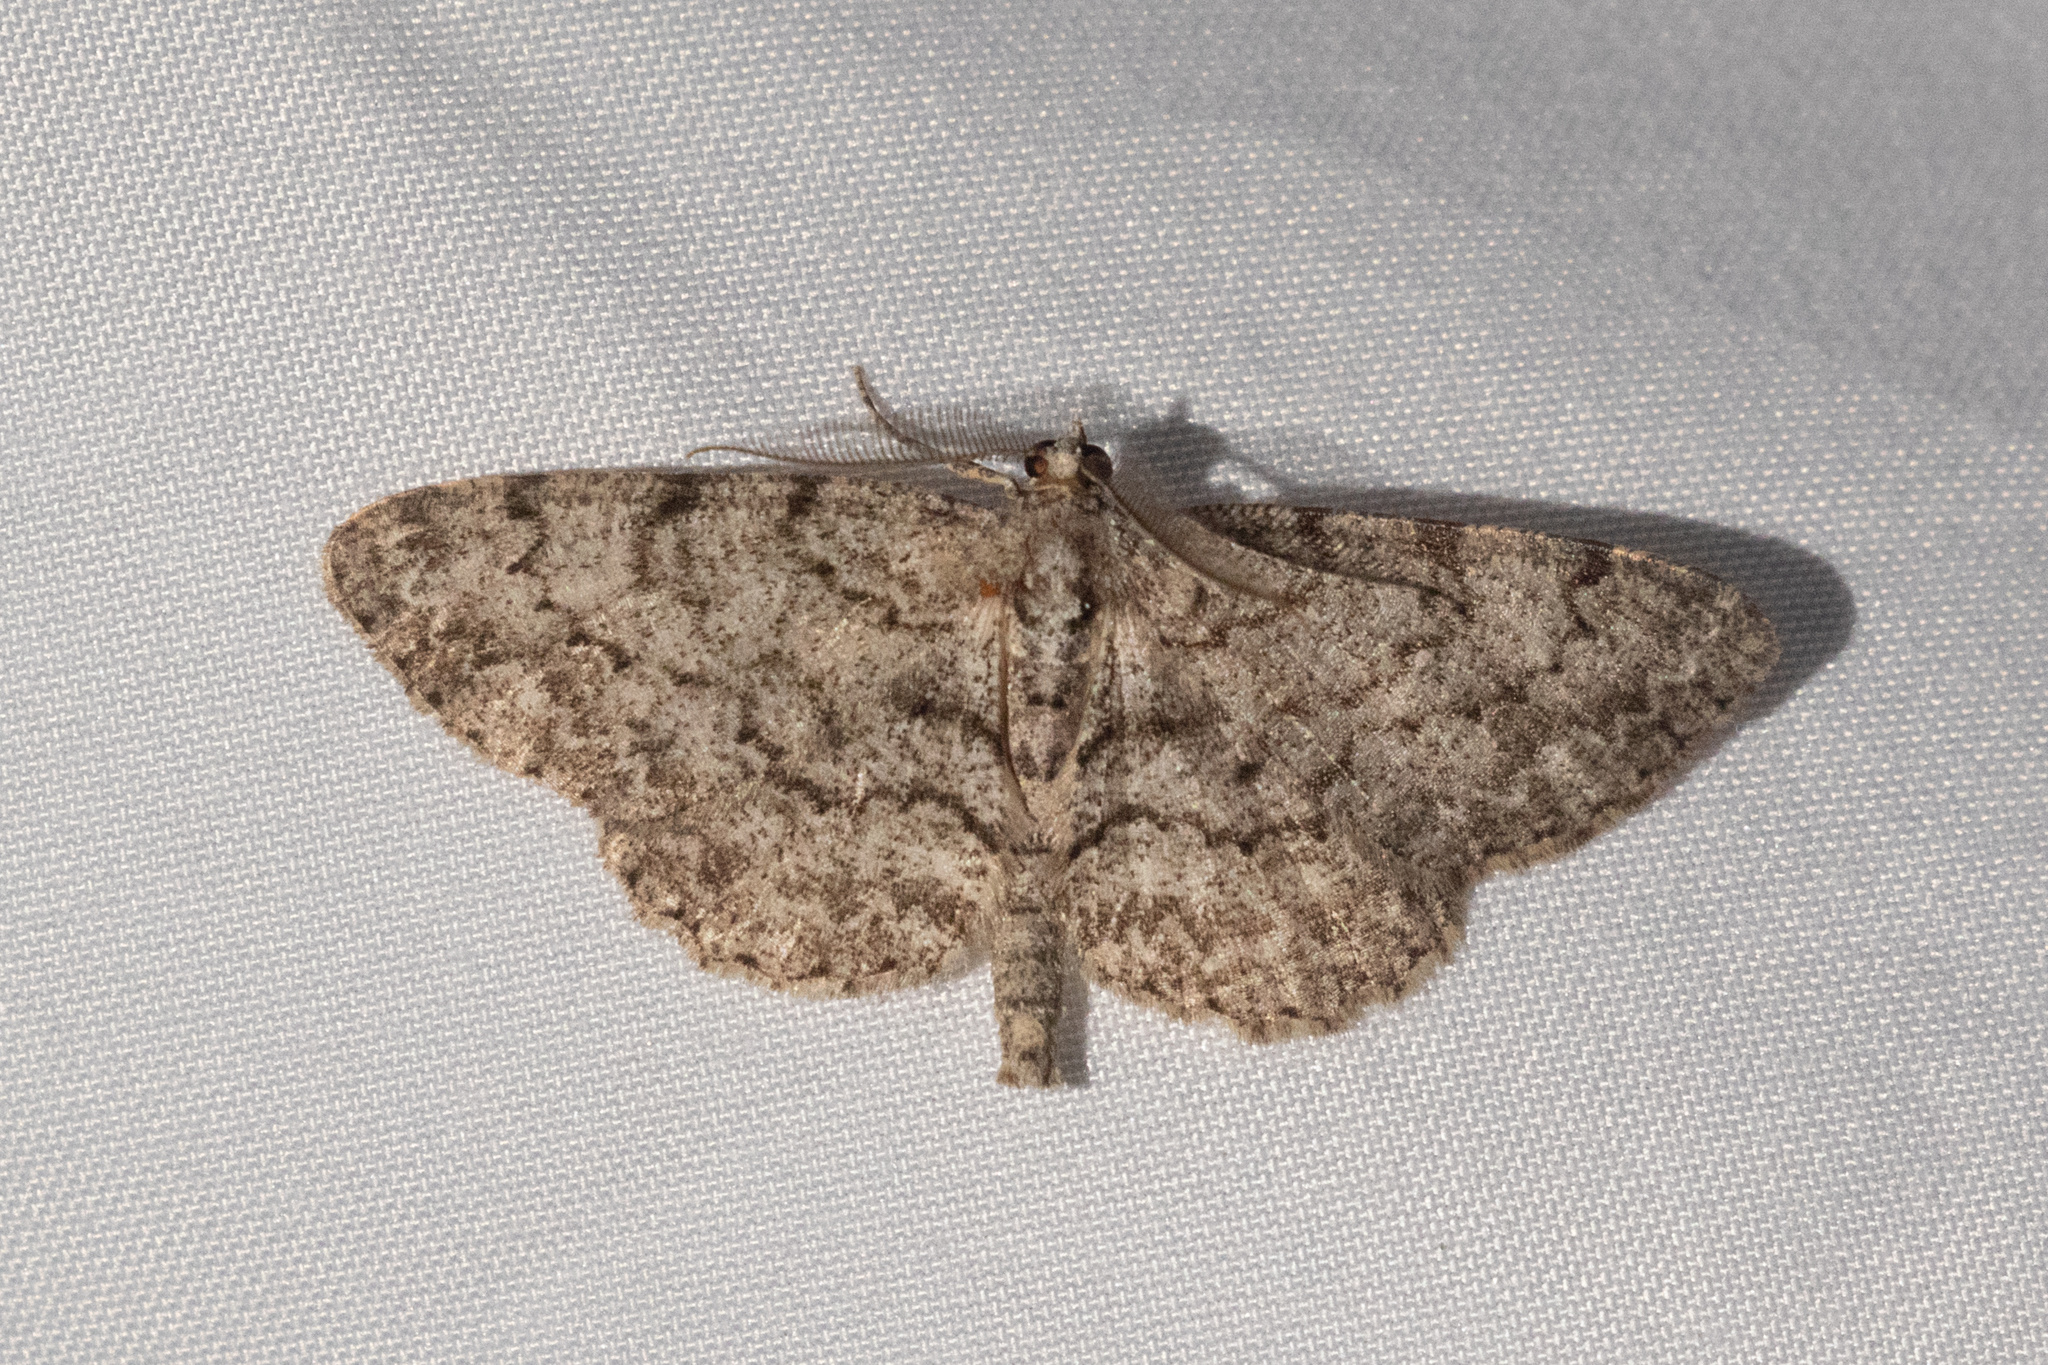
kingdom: Animalia
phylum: Arthropoda
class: Insecta
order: Lepidoptera
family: Geometridae
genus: Protoboarmia
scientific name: Protoboarmia porcelaria
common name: Porcelain gray
